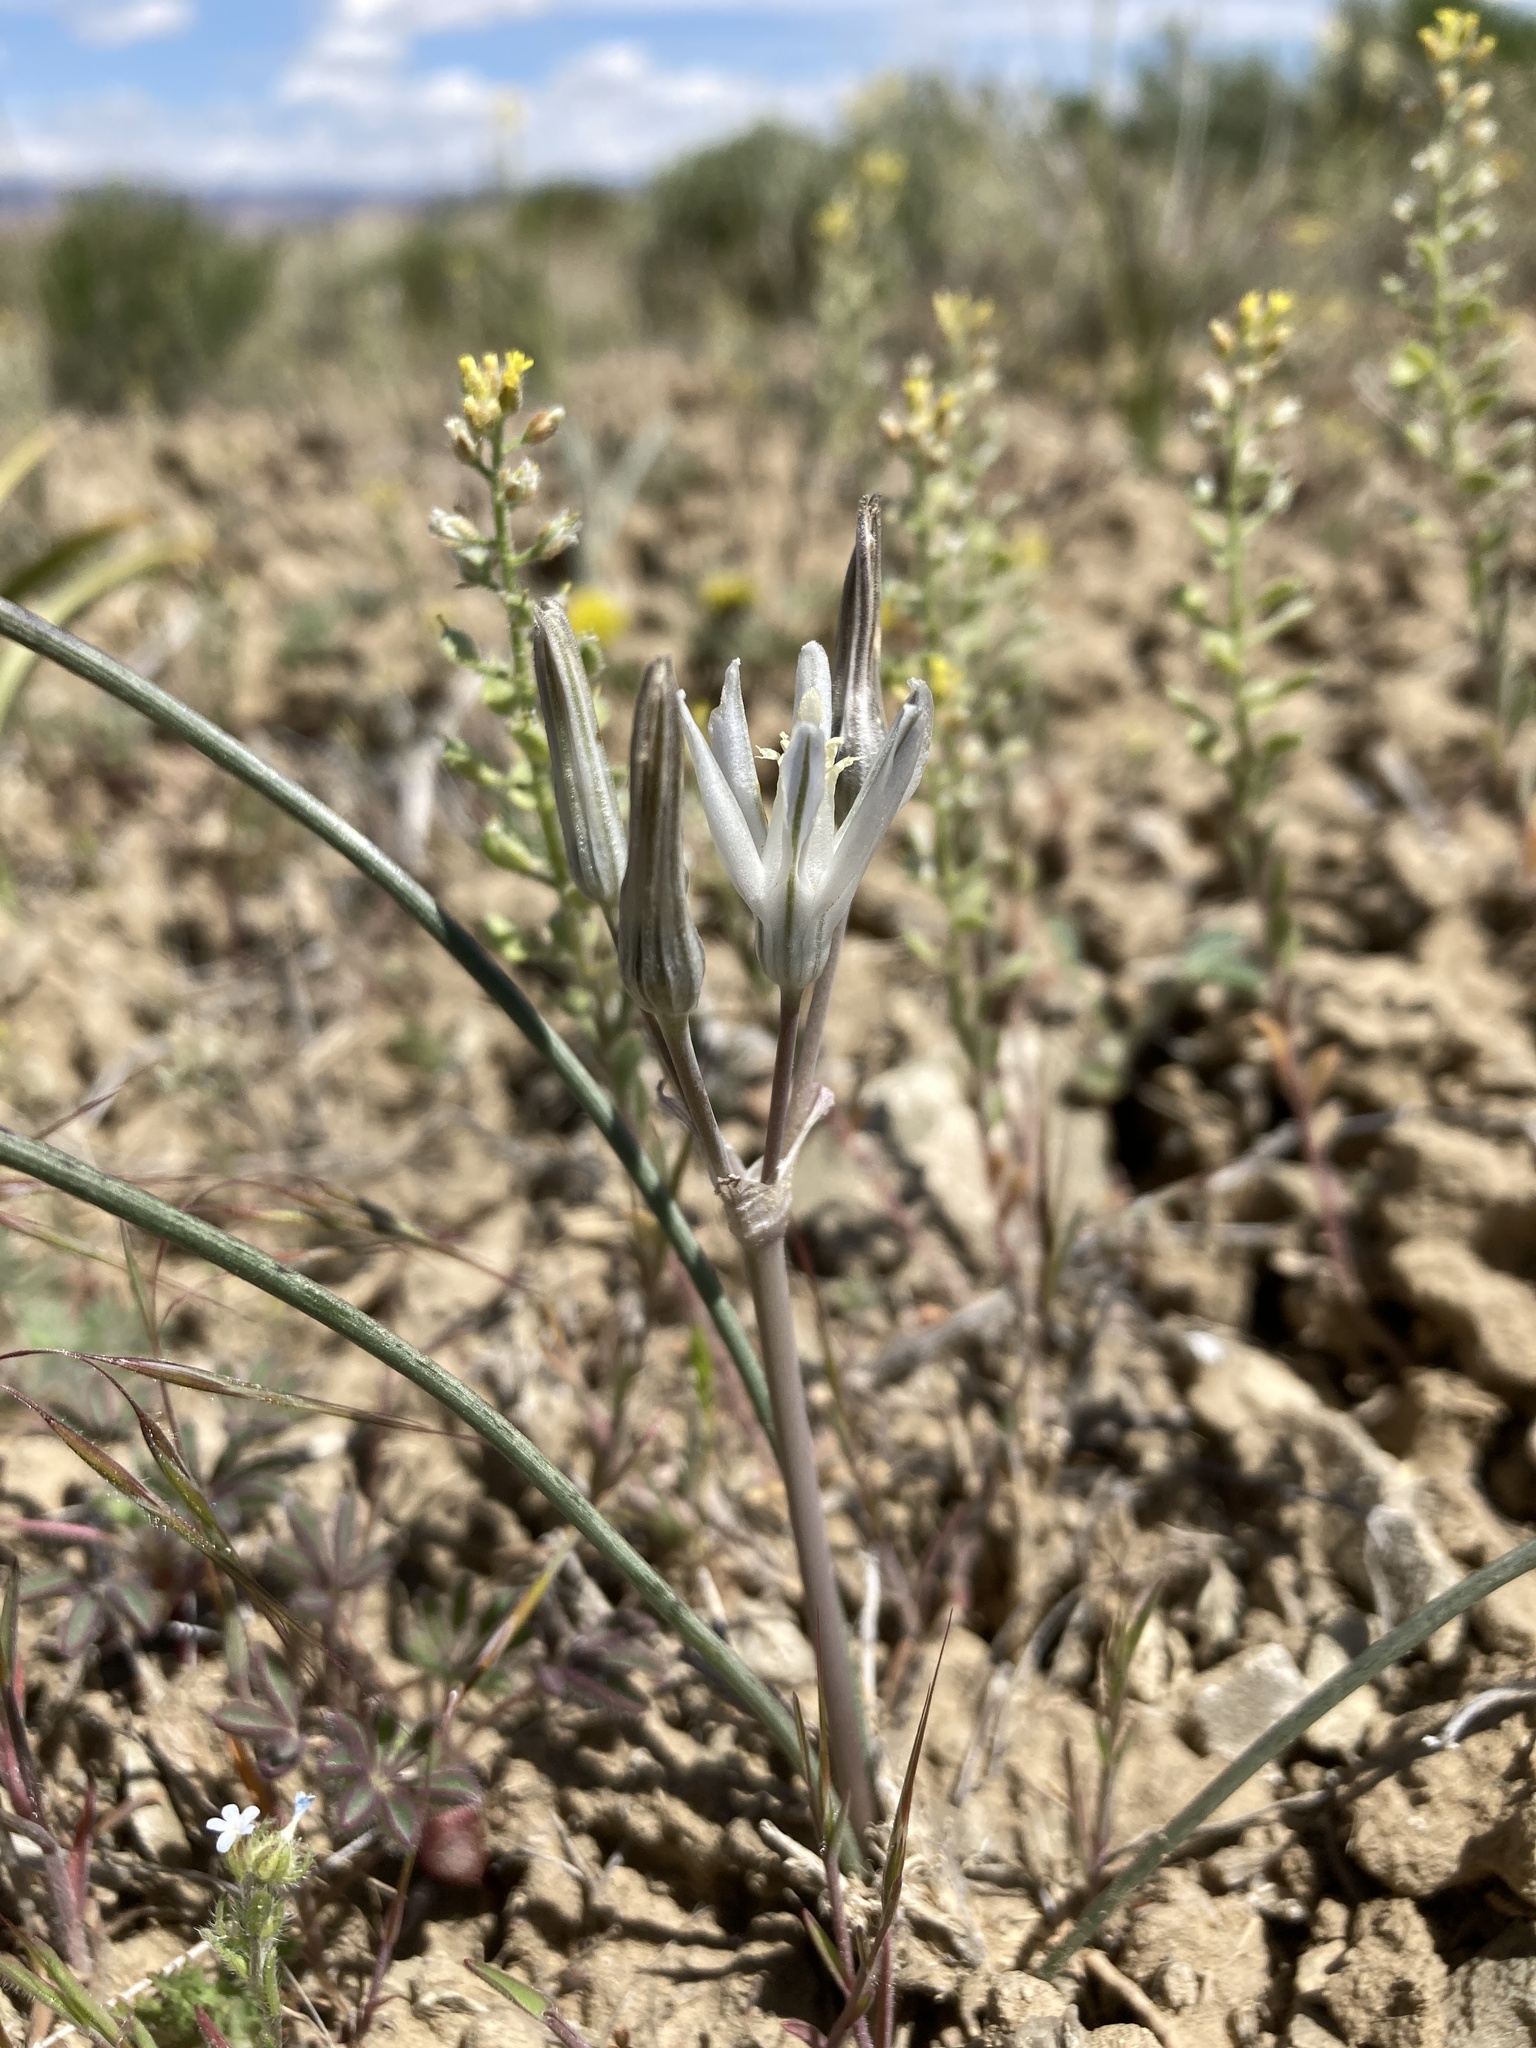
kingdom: Plantae
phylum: Tracheophyta
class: Liliopsida
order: Asparagales
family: Asparagaceae
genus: Androstephium
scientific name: Androstephium breviflorum
